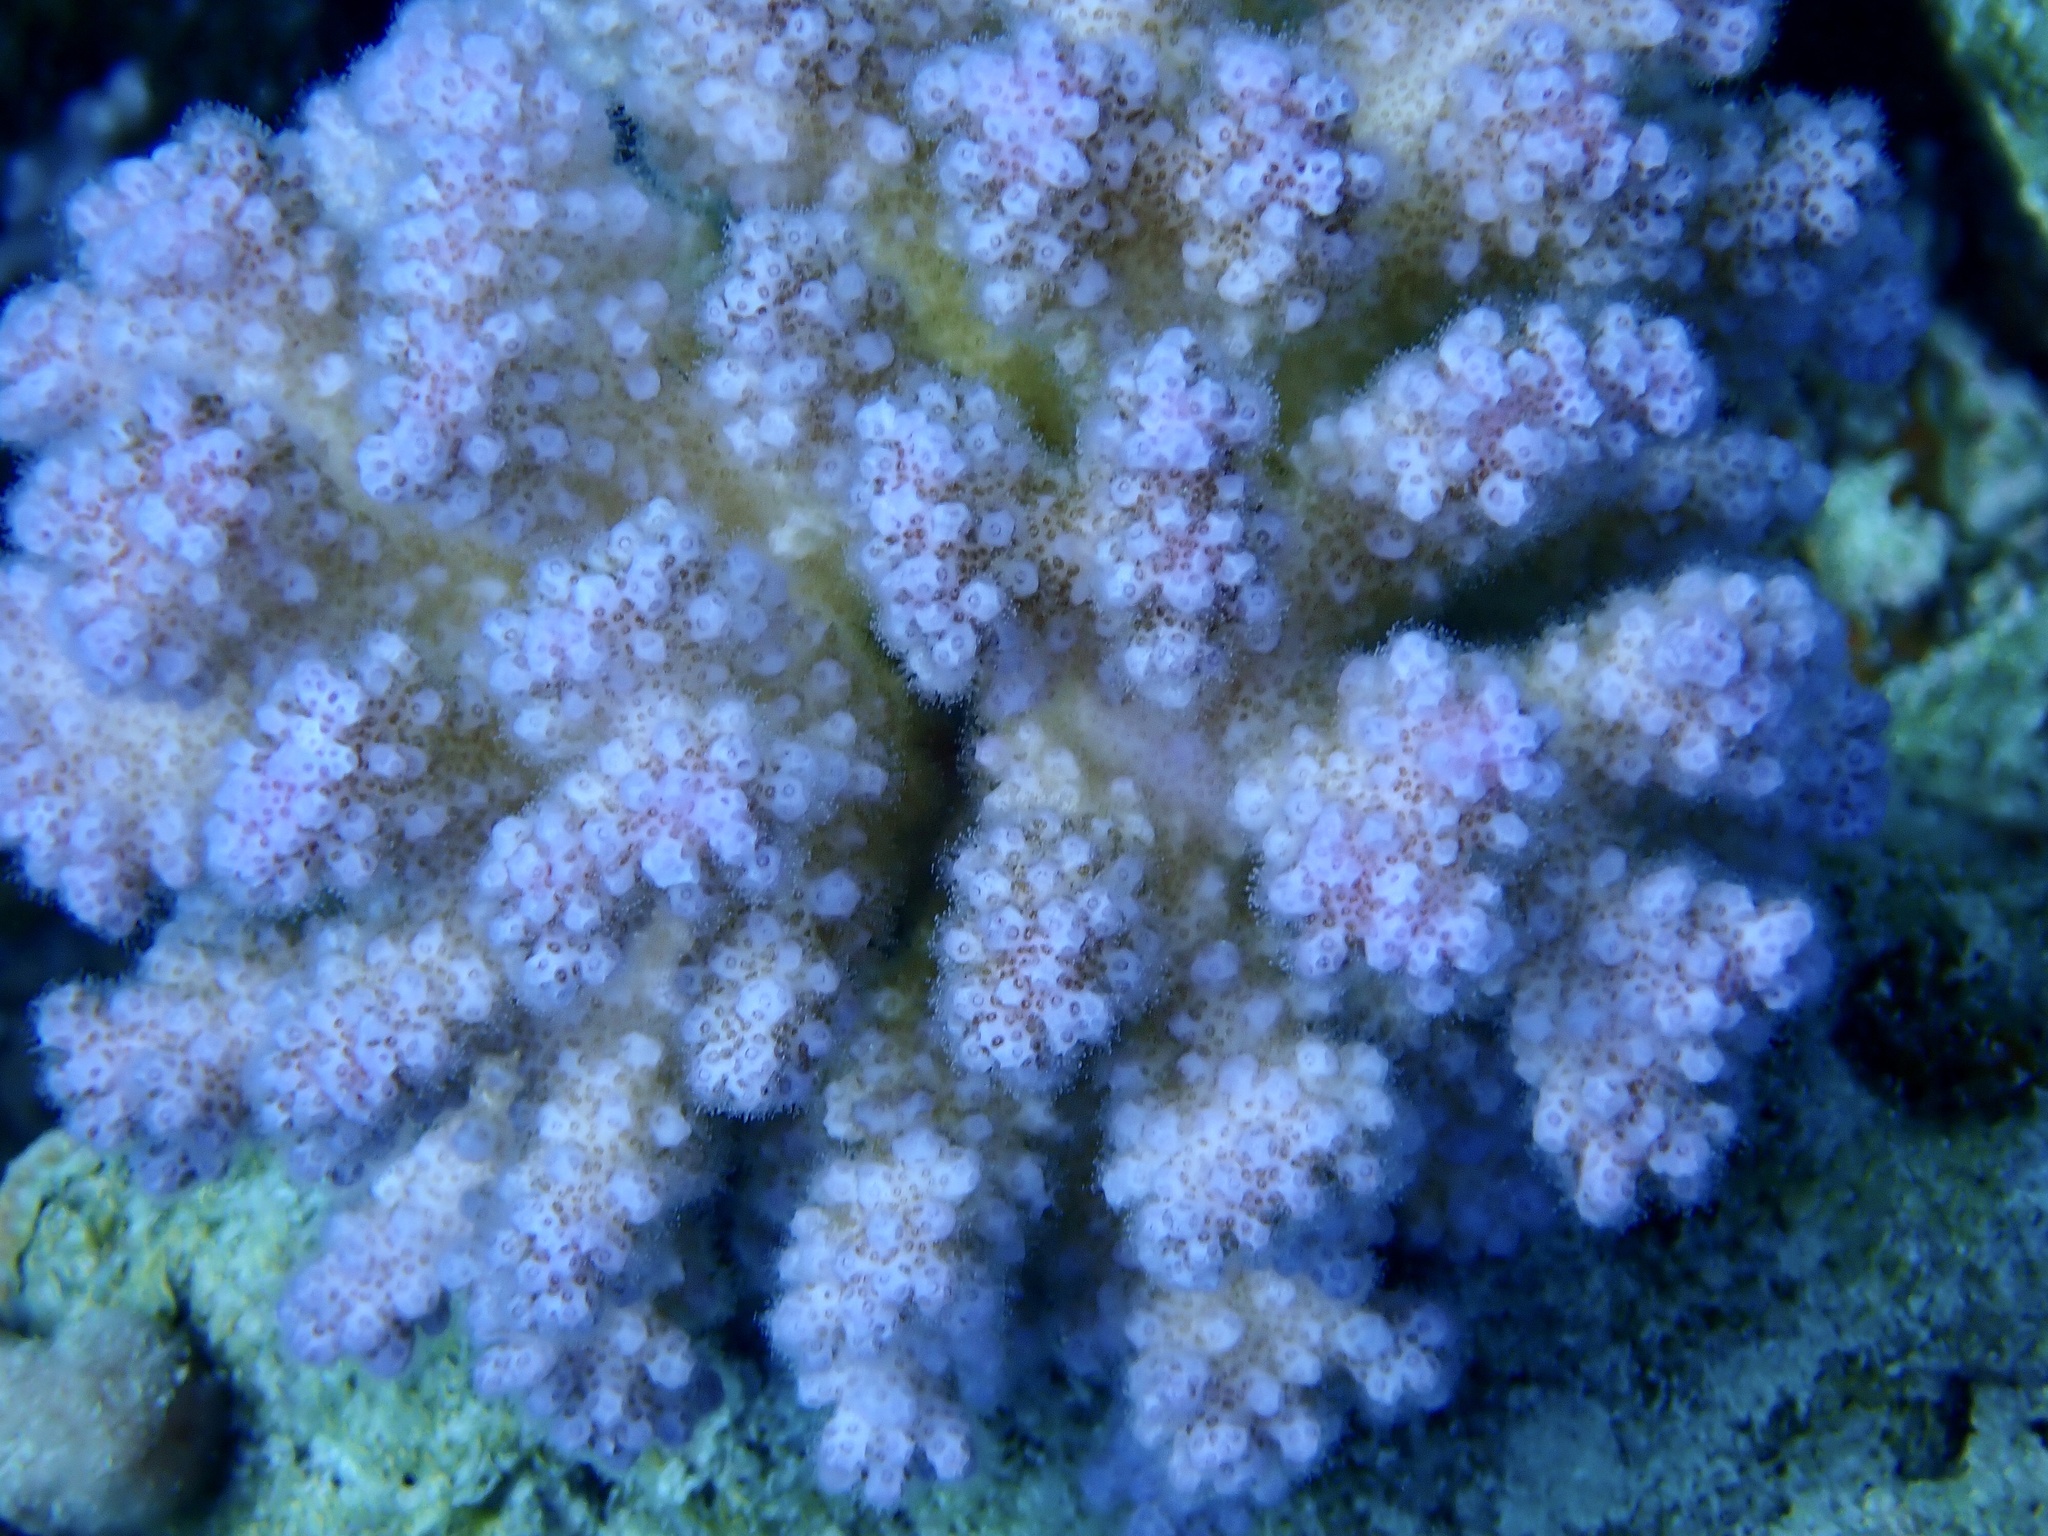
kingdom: Animalia
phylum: Cnidaria
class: Anthozoa
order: Scleractinia
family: Pocilloporidae
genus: Pocillopora
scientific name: Pocillopora verrucosa
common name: Cauliflower coral
